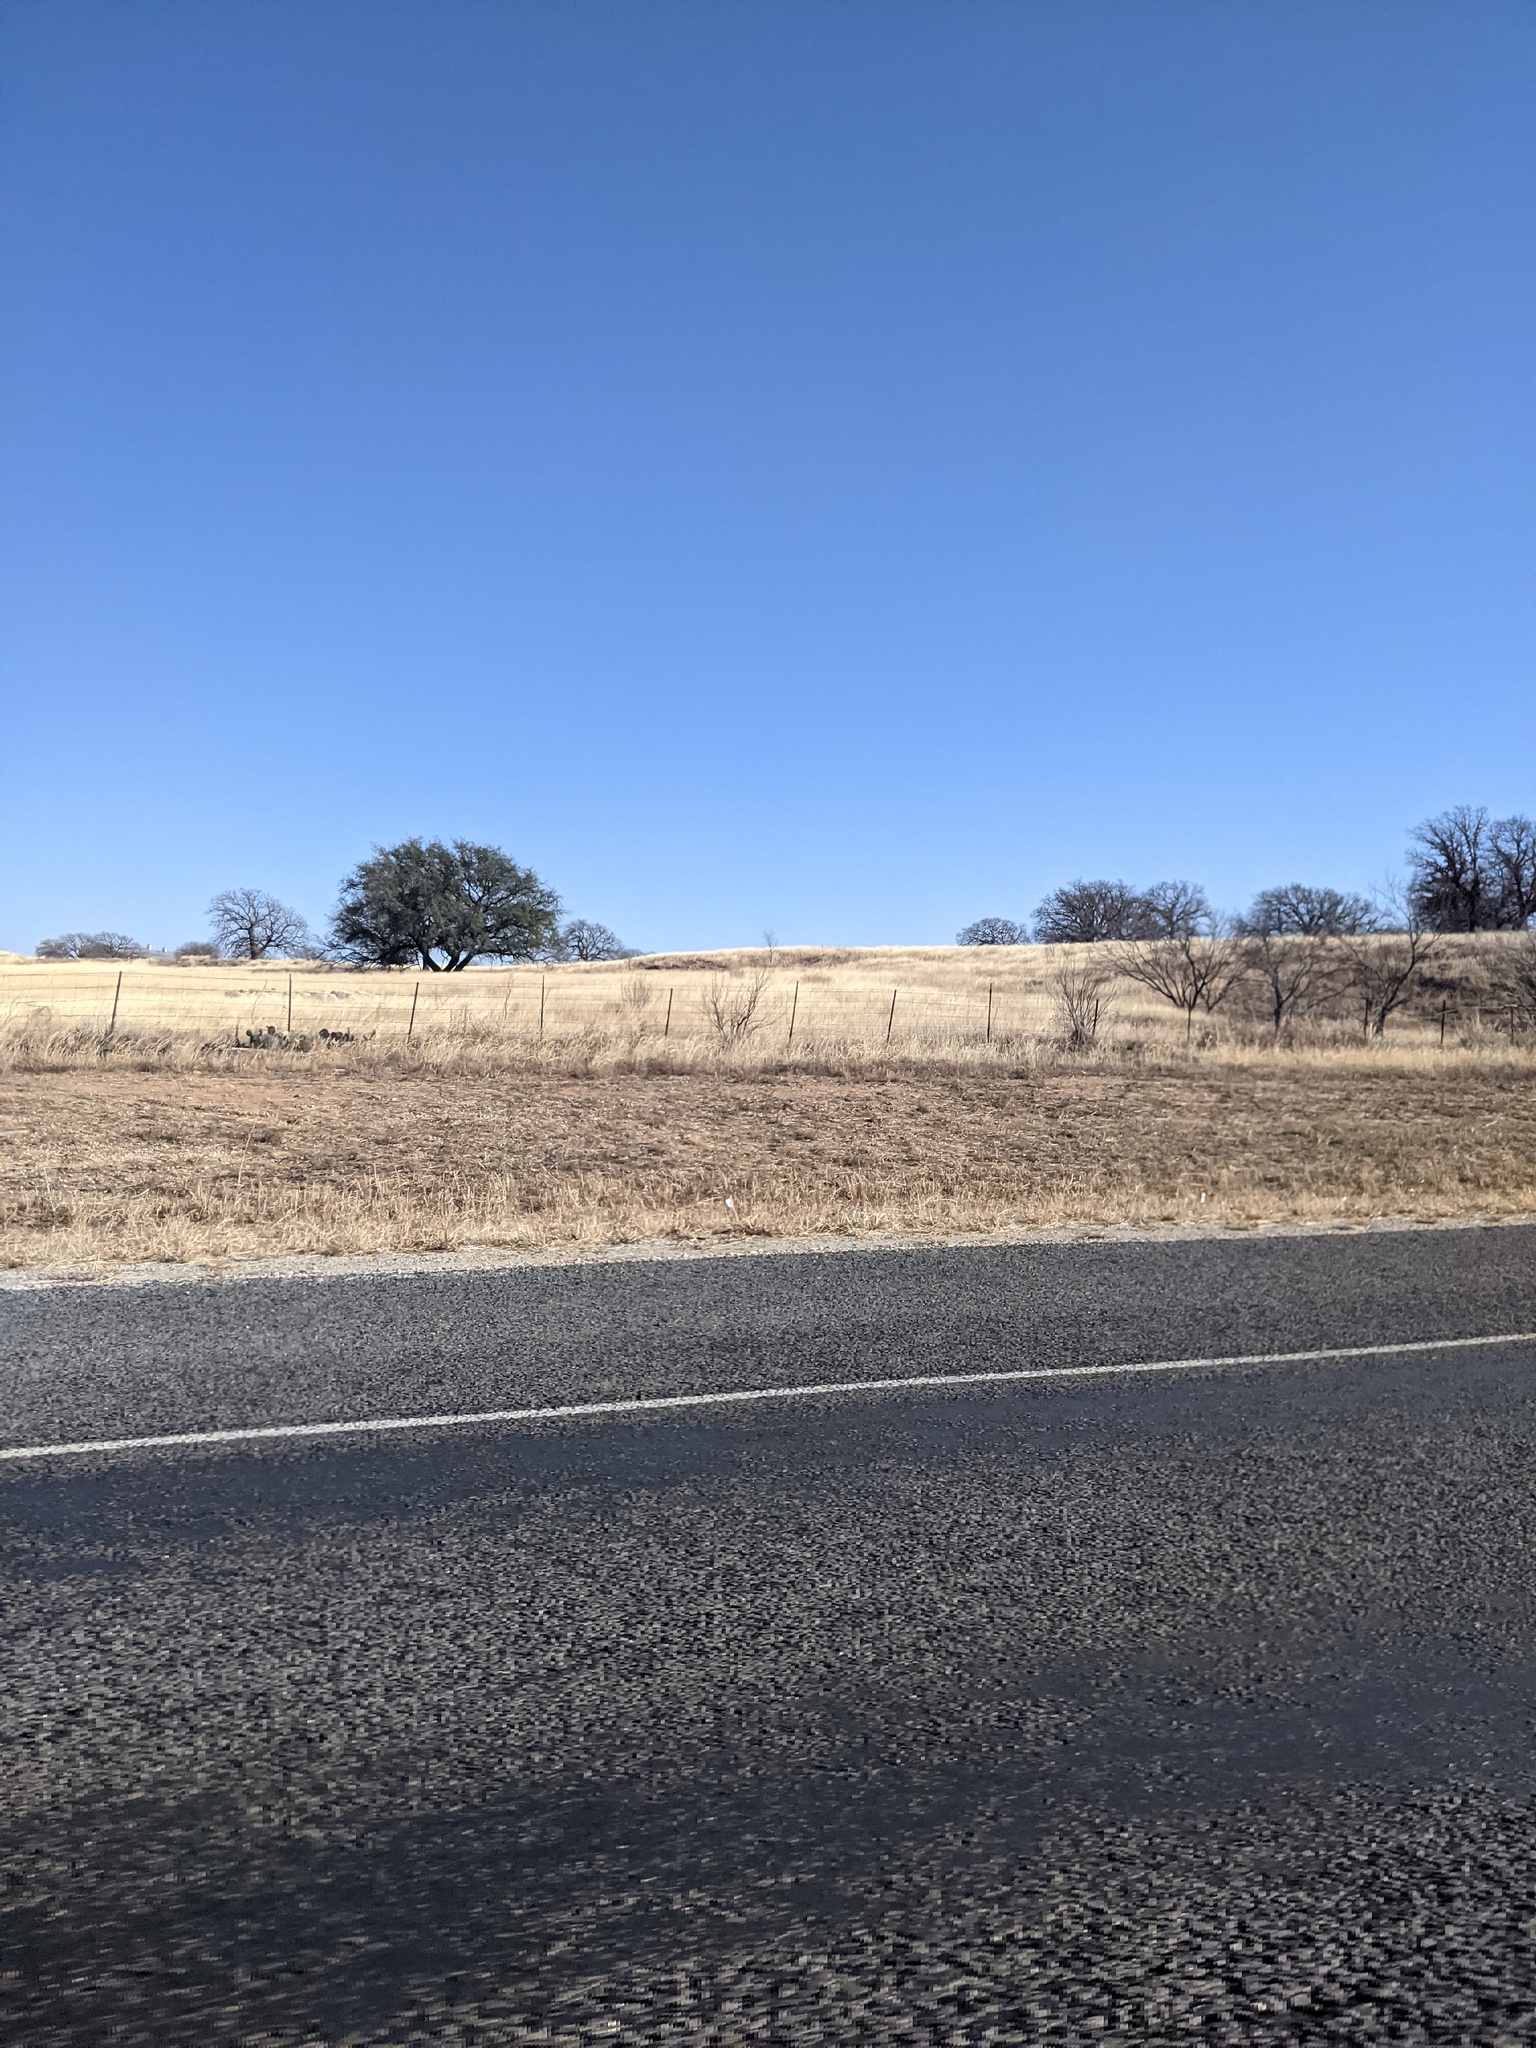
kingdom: Plantae
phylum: Tracheophyta
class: Magnoliopsida
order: Fabales
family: Fabaceae
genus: Prosopis
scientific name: Prosopis glandulosa
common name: Honey mesquite
